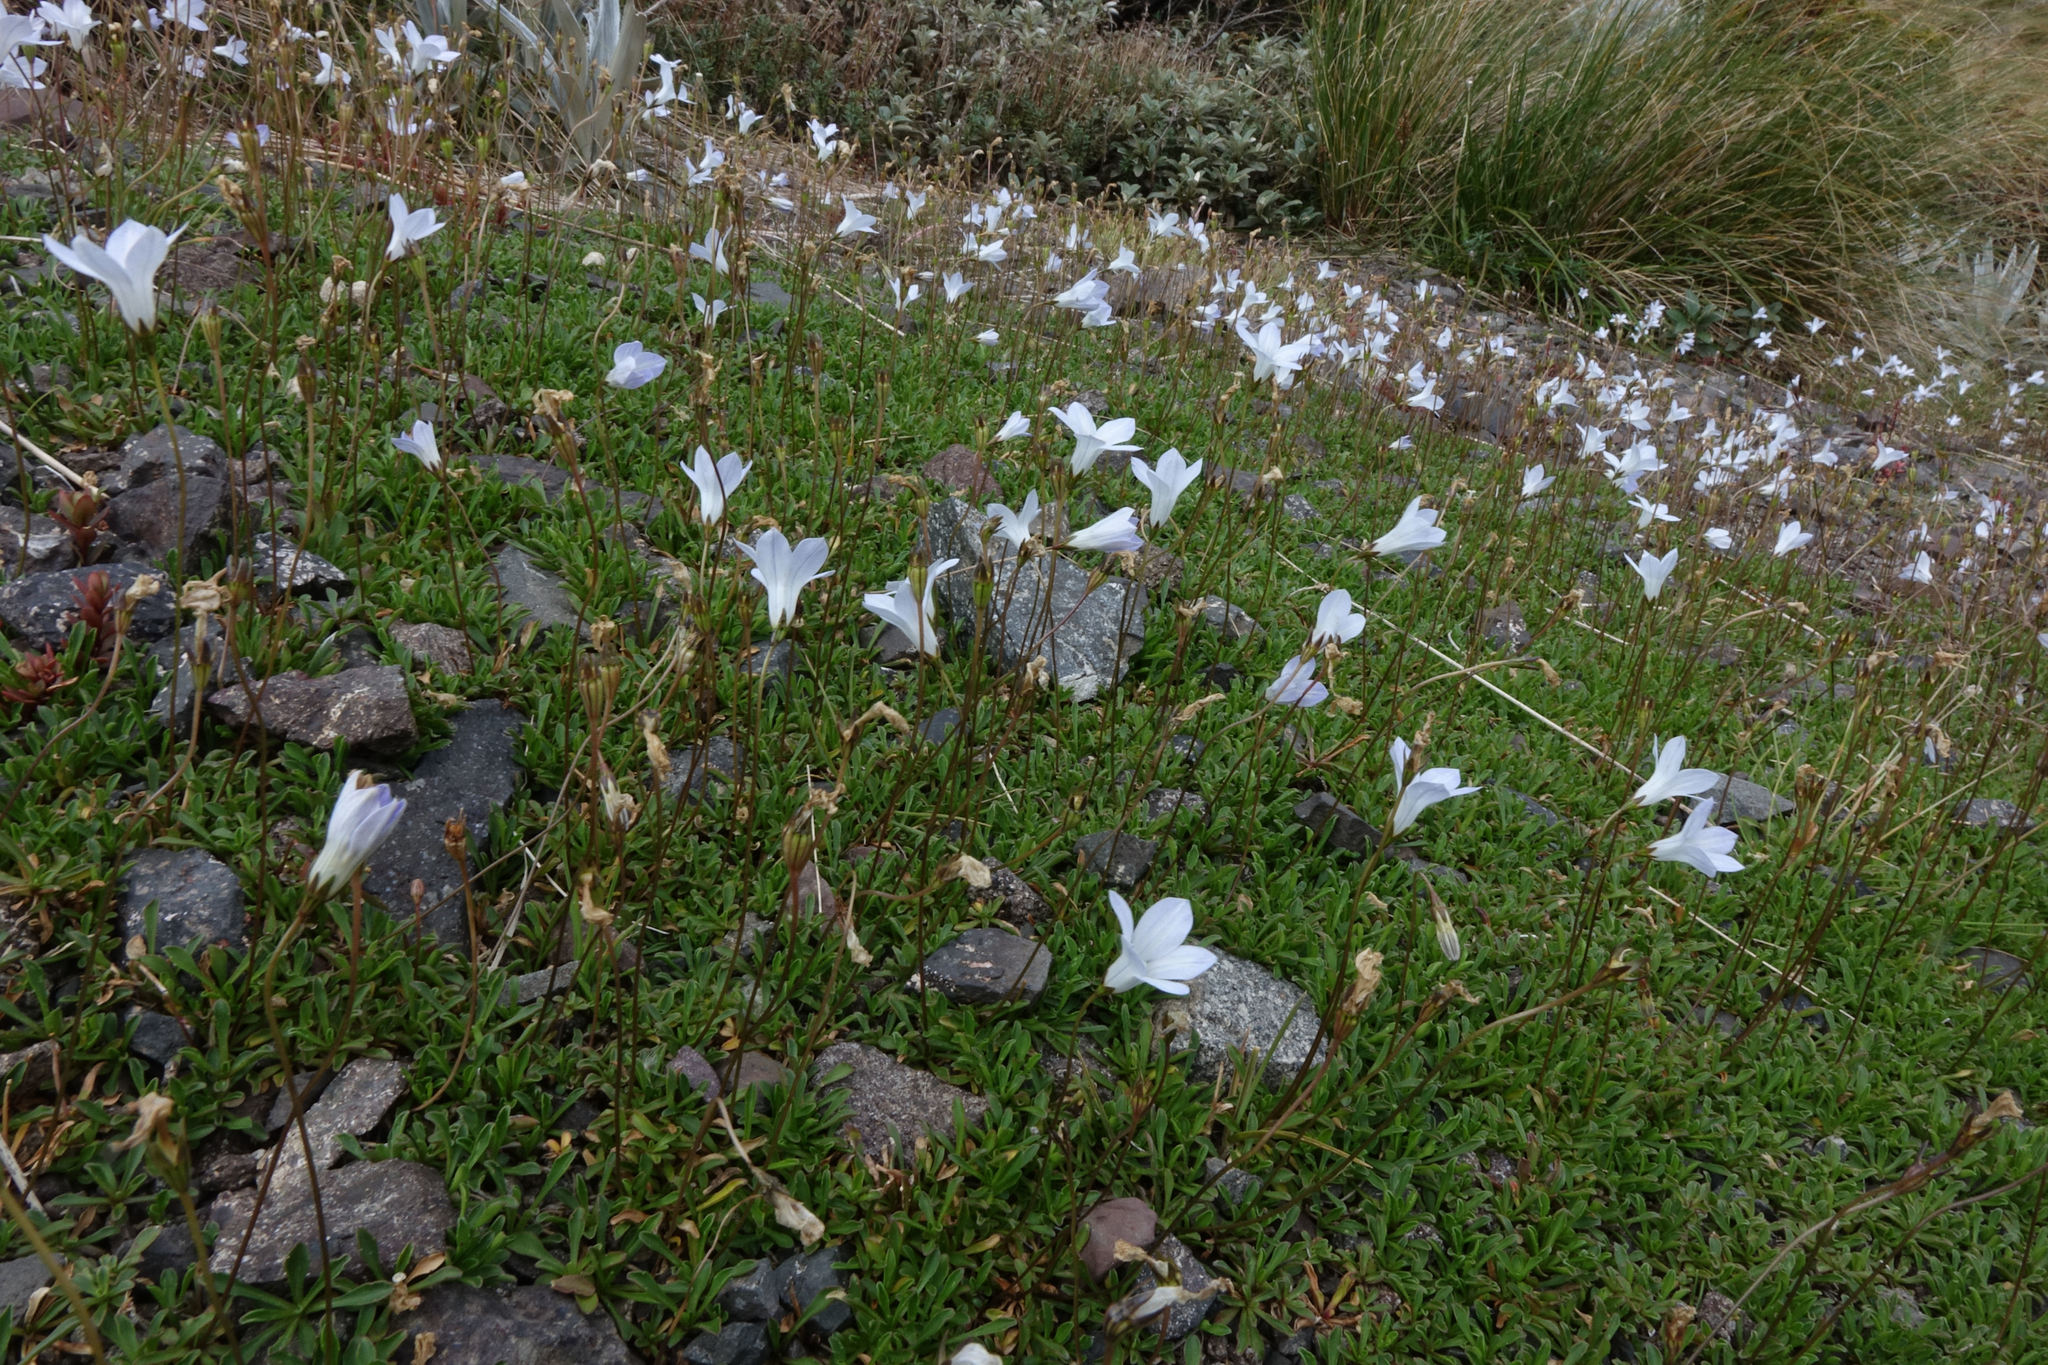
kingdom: Plantae
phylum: Tracheophyta
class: Magnoliopsida
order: Asterales
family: Campanulaceae
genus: Wahlenbergia
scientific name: Wahlenbergia albomarginata
